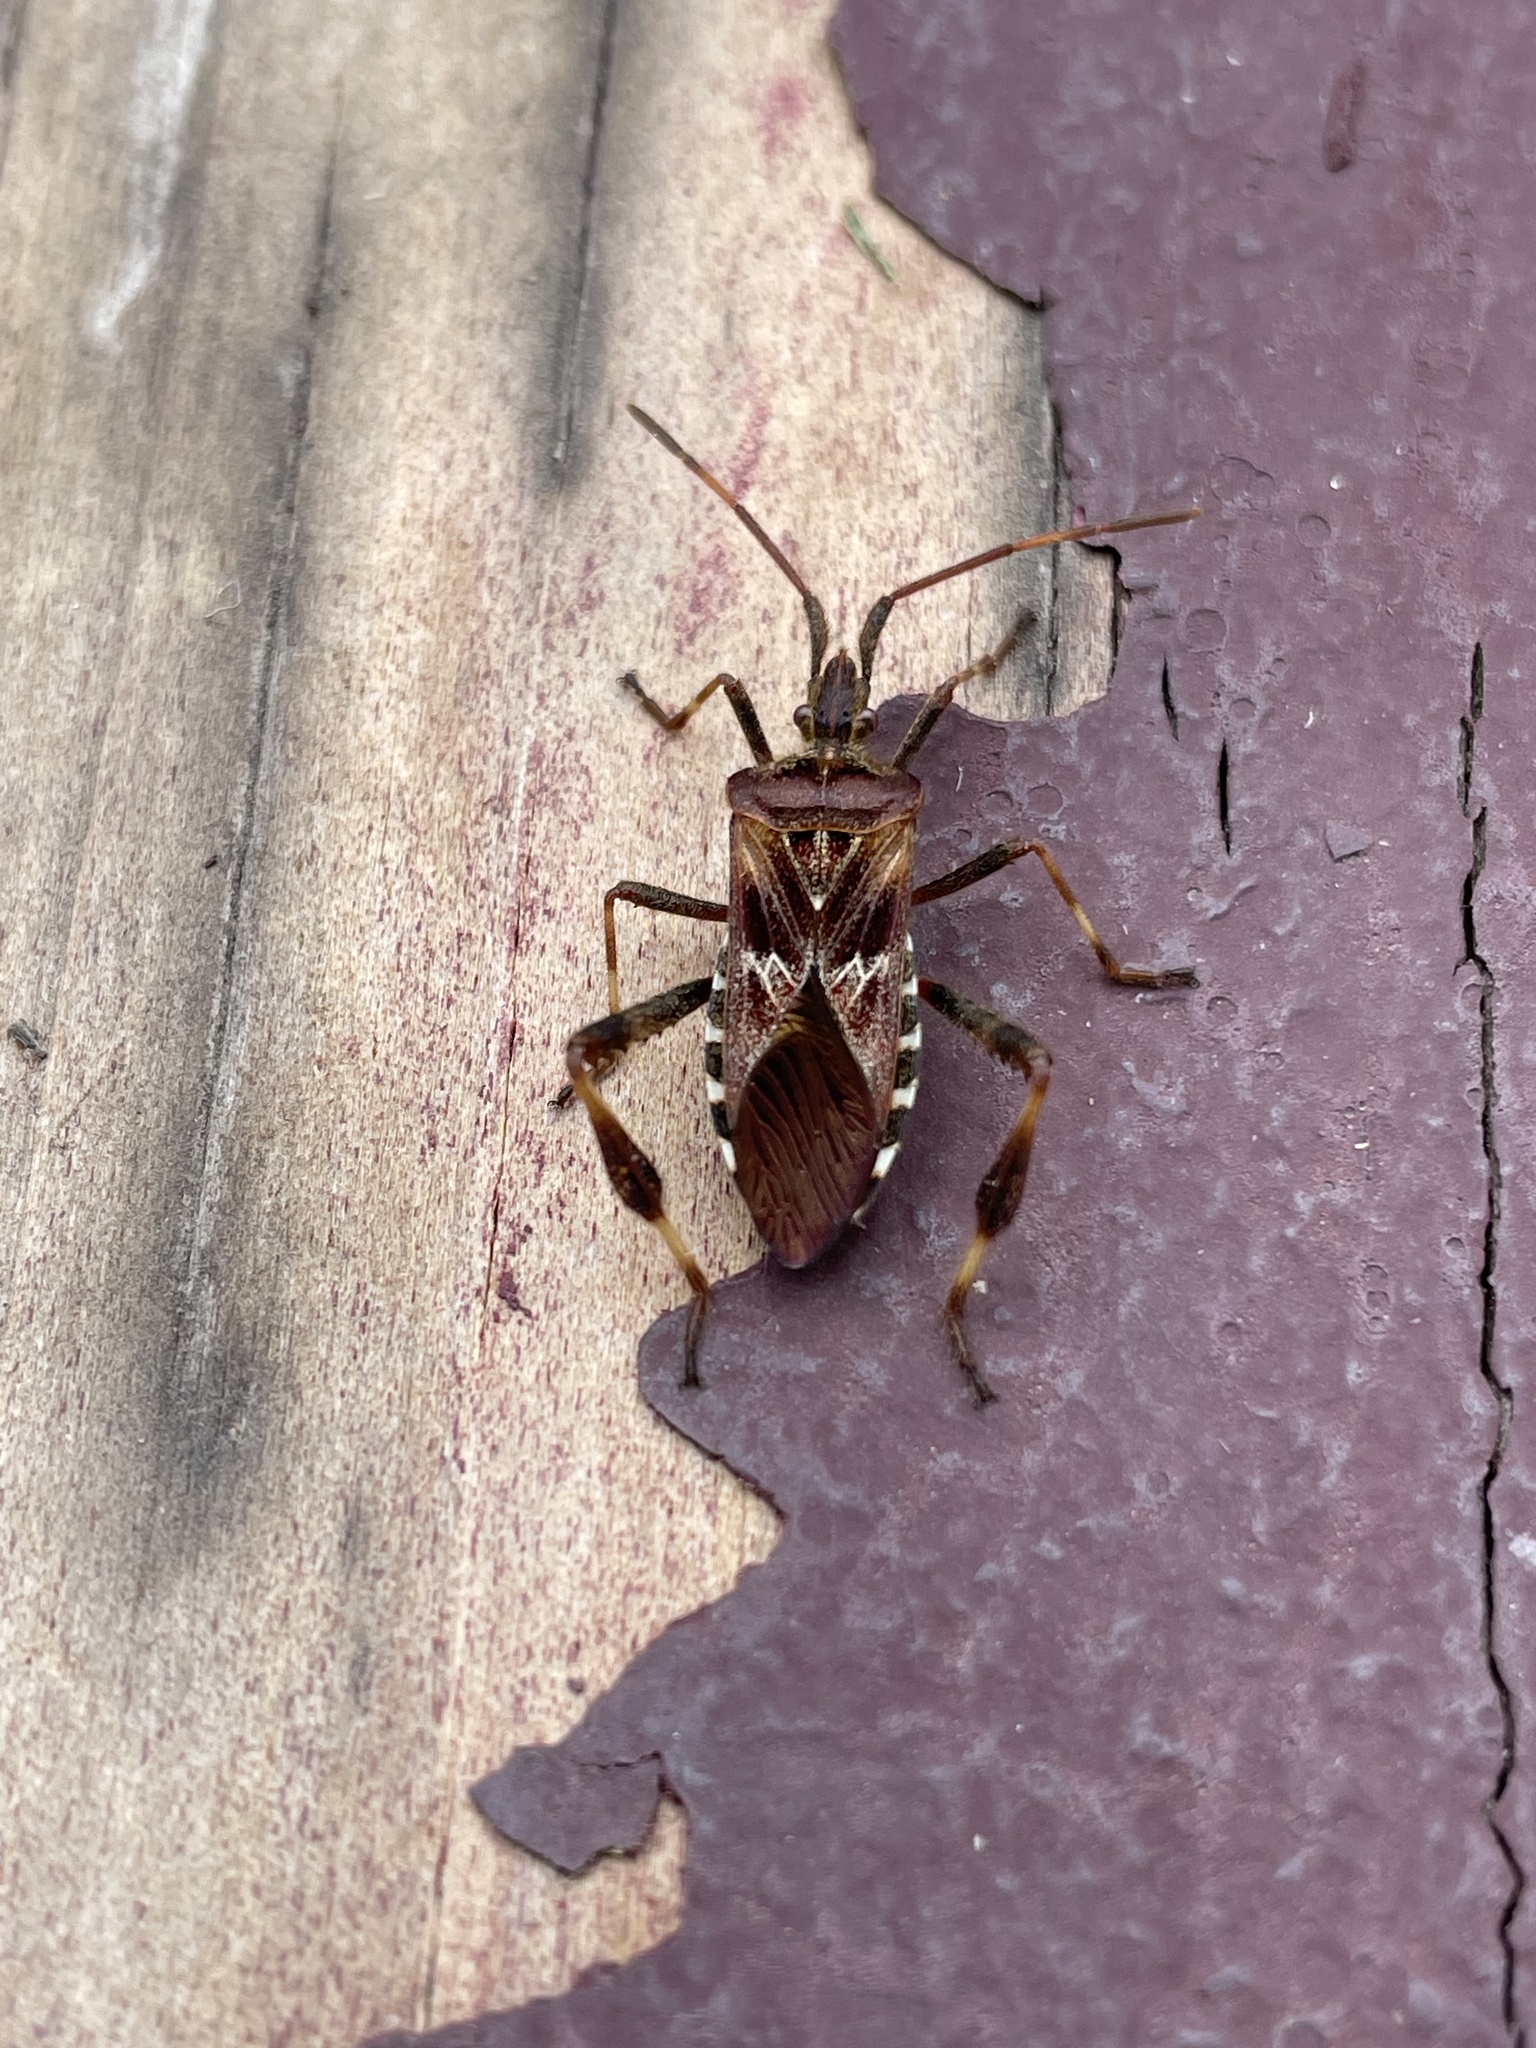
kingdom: Animalia
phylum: Arthropoda
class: Insecta
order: Hemiptera
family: Coreidae
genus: Leptoglossus
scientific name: Leptoglossus occidentalis
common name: Western conifer-seed bug
